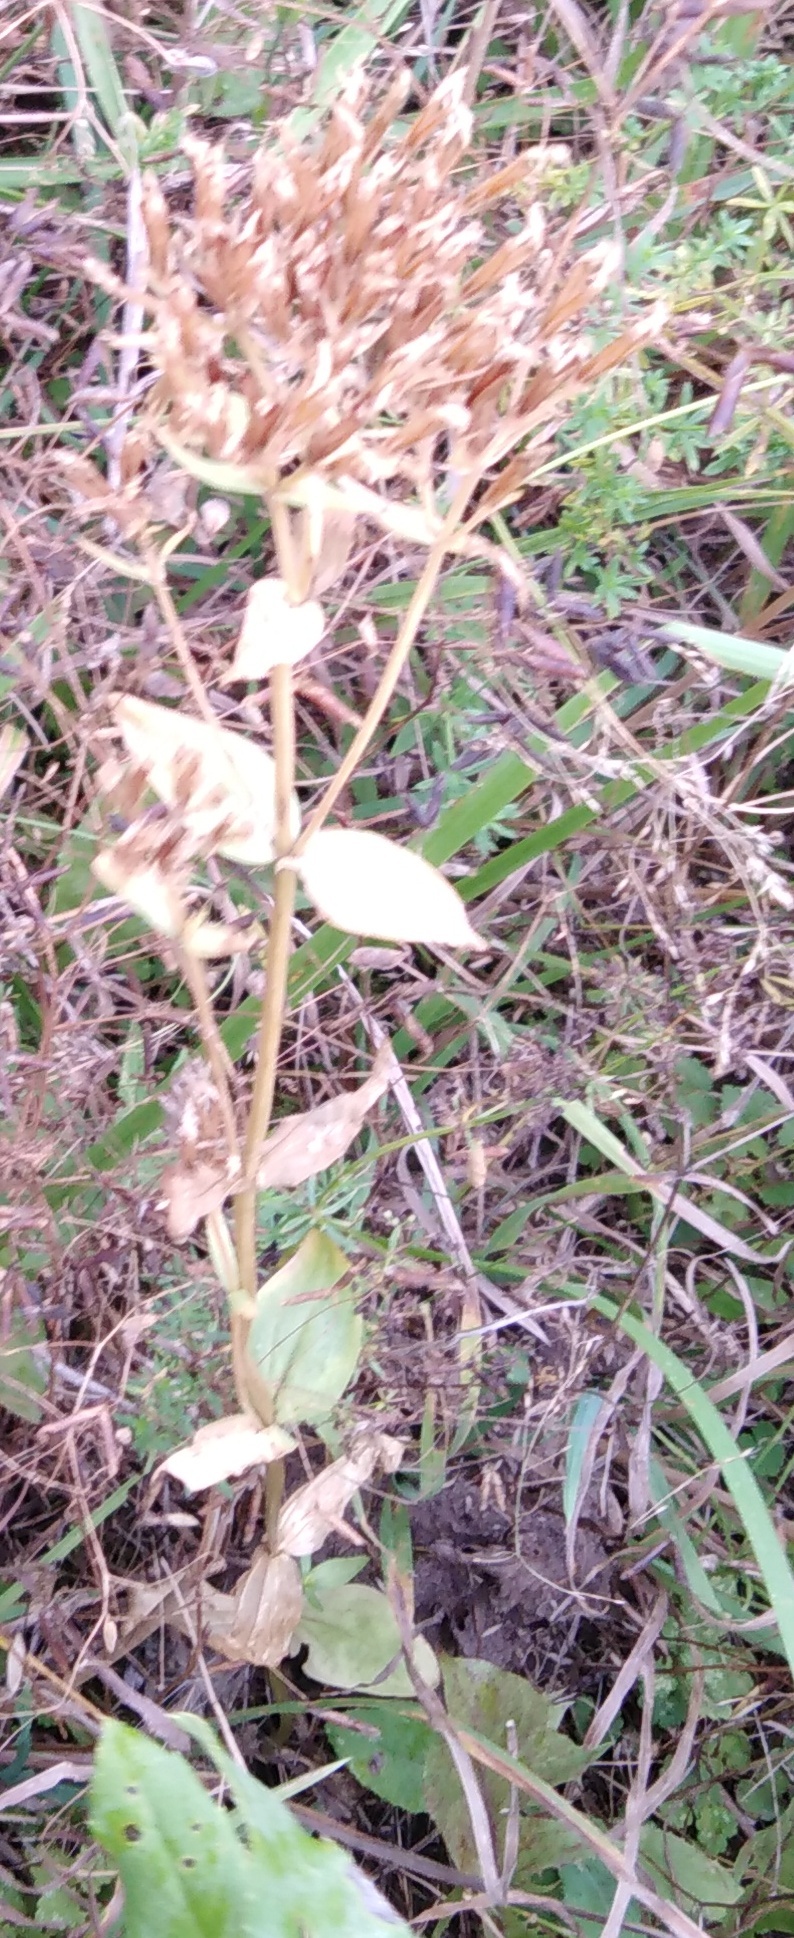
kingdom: Plantae
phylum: Tracheophyta
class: Magnoliopsida
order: Gentianales
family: Gentianaceae
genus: Centaurium
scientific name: Centaurium erythraea
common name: Common centaury
